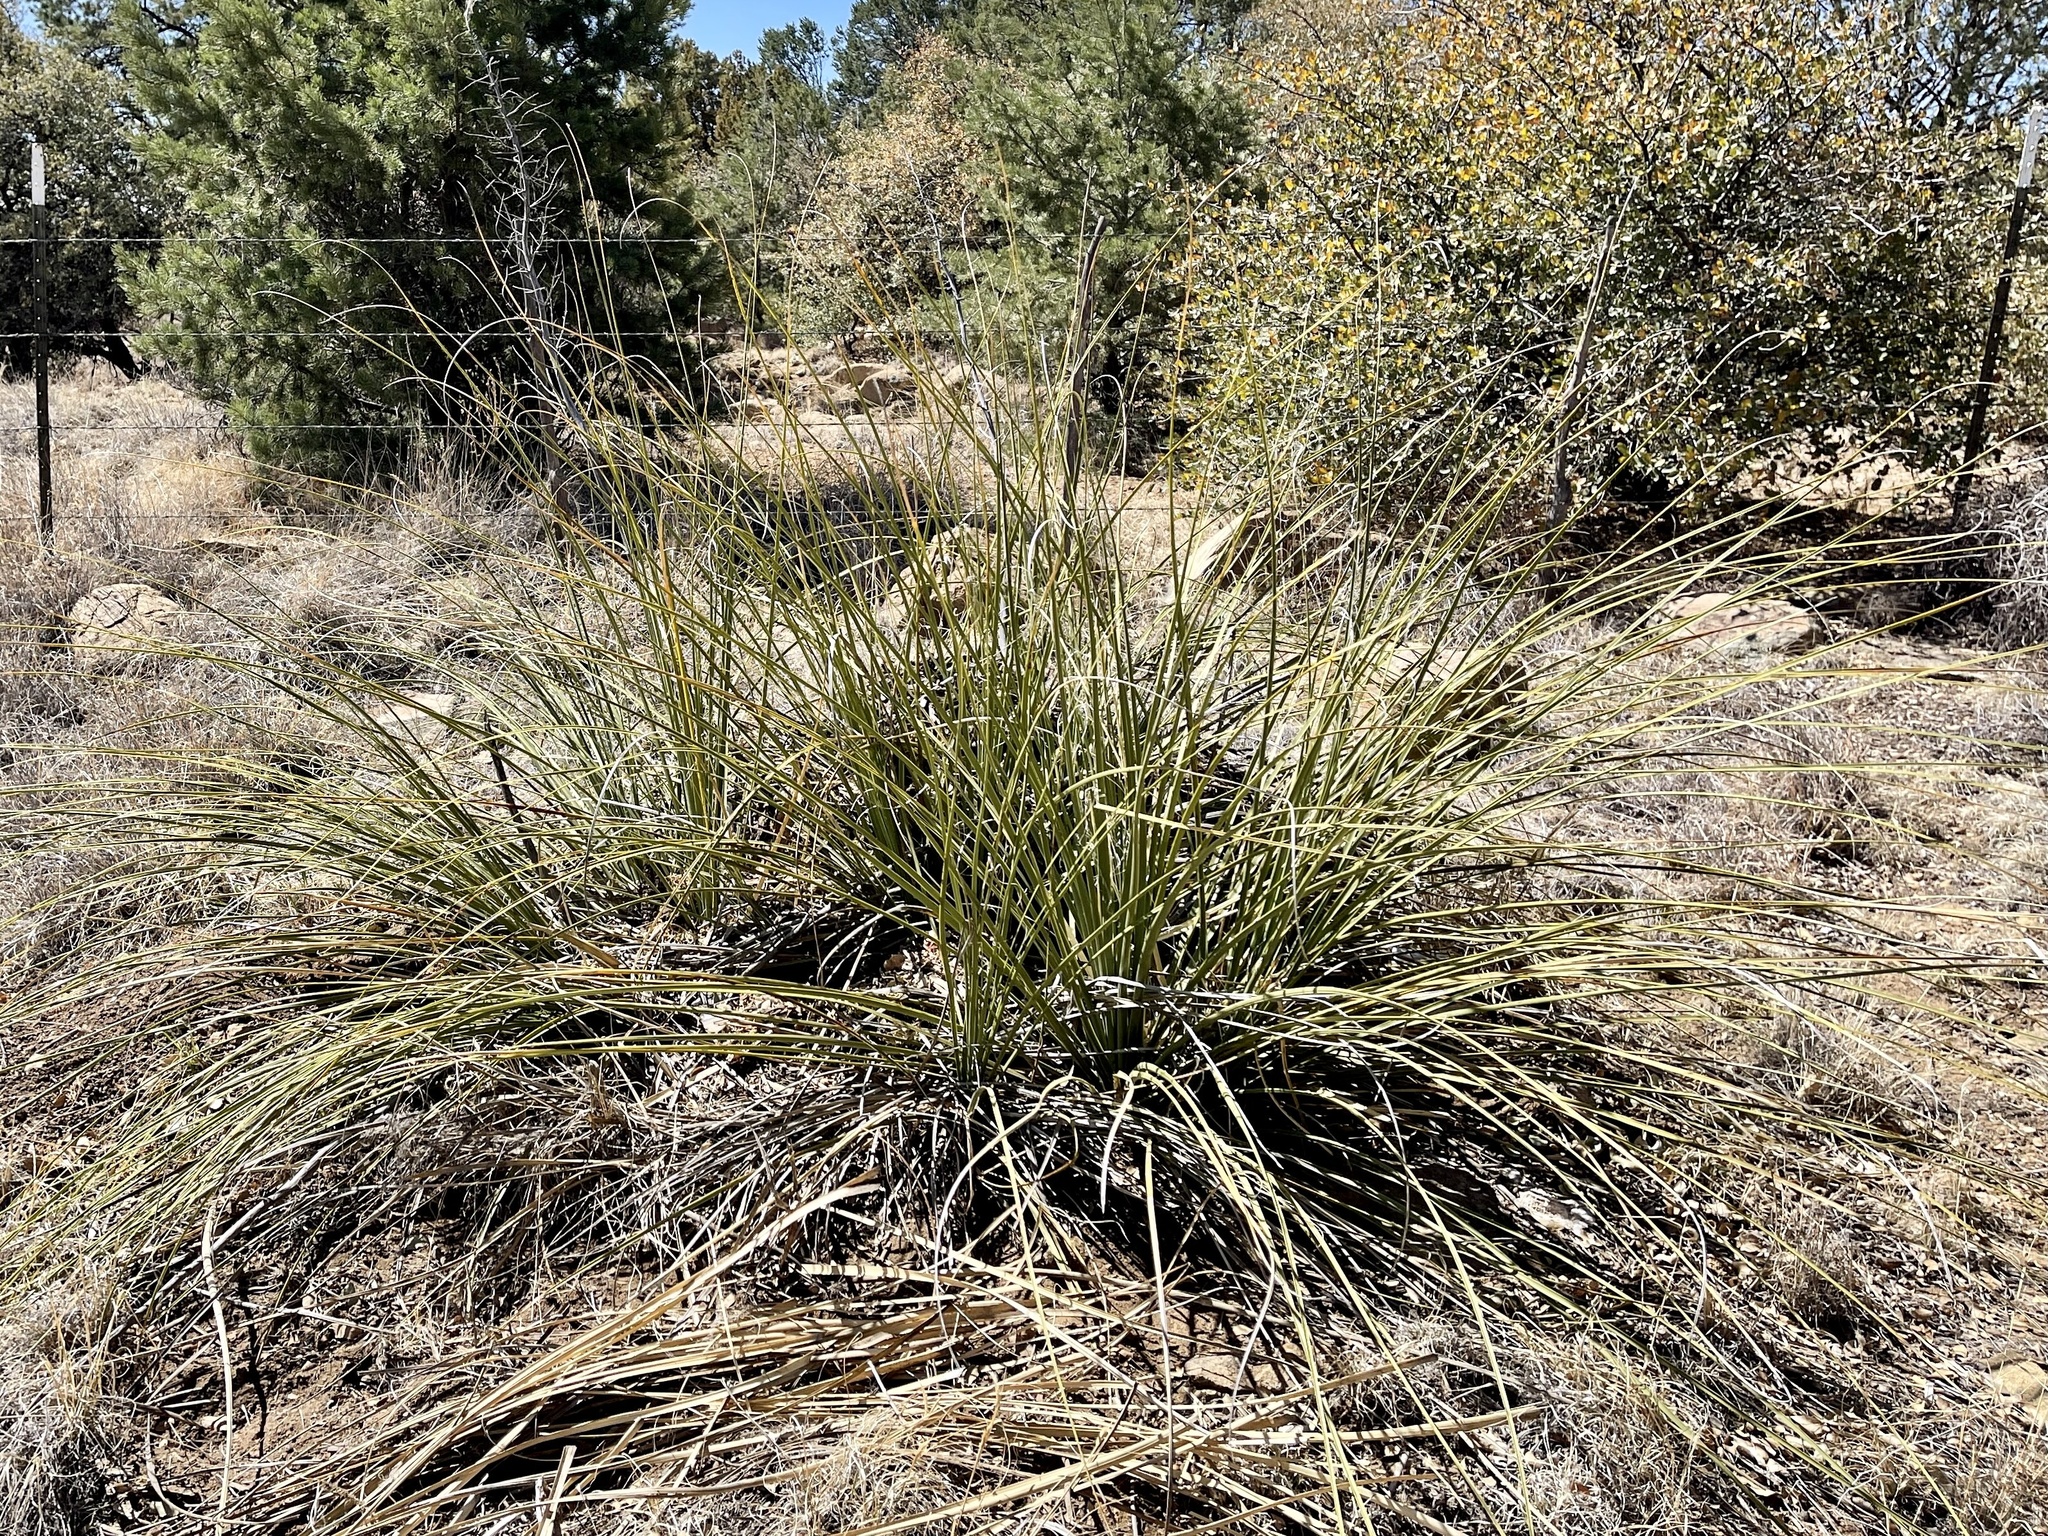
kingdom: Plantae
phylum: Tracheophyta
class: Liliopsida
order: Asparagales
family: Asparagaceae
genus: Nolina
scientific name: Nolina microcarpa
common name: Bear-grass
